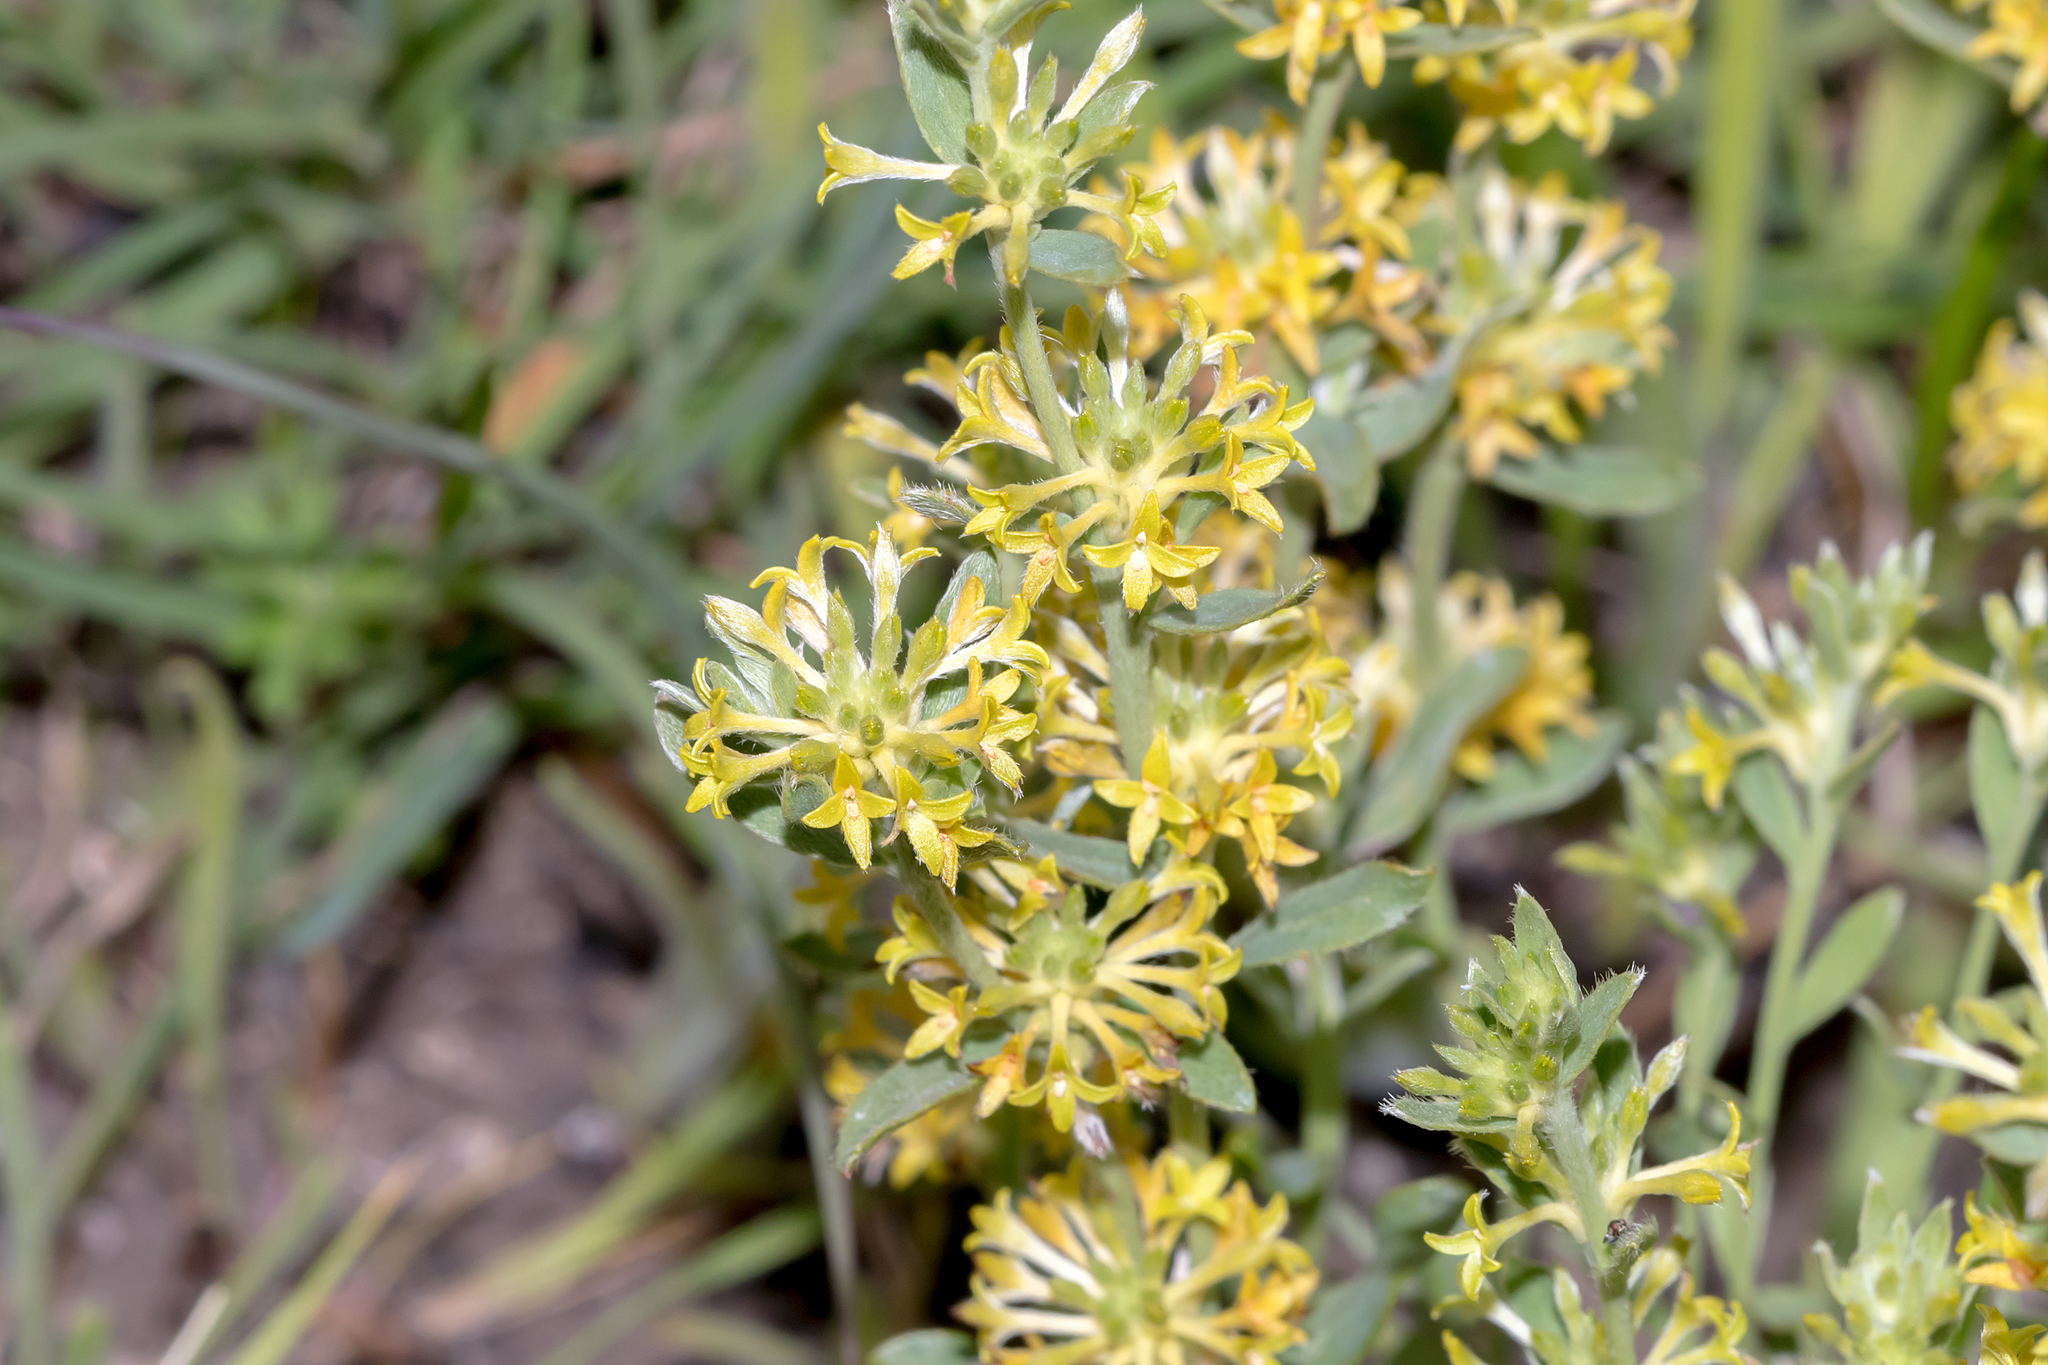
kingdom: Plantae
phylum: Tracheophyta
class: Magnoliopsida
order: Malvales
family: Thymelaeaceae
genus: Pimelea
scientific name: Pimelea curviflora
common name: Curved riceflower
